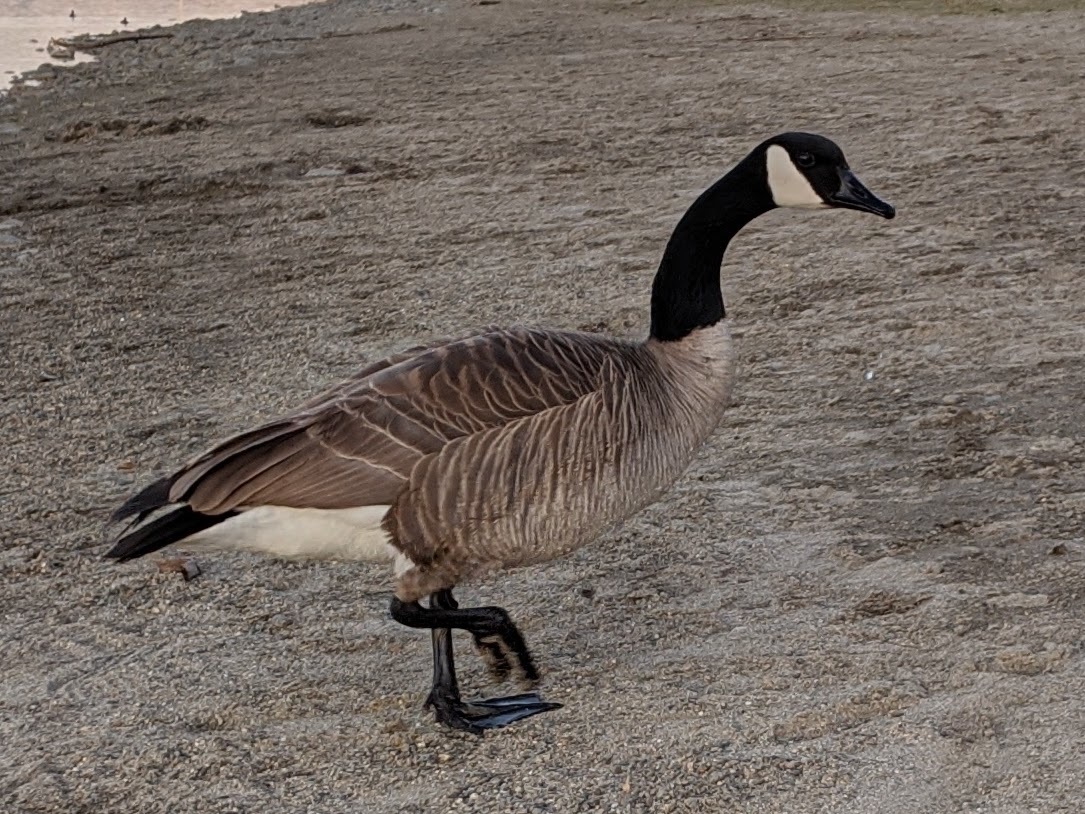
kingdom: Animalia
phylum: Chordata
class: Aves
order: Anseriformes
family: Anatidae
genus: Branta
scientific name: Branta canadensis
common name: Canada goose
